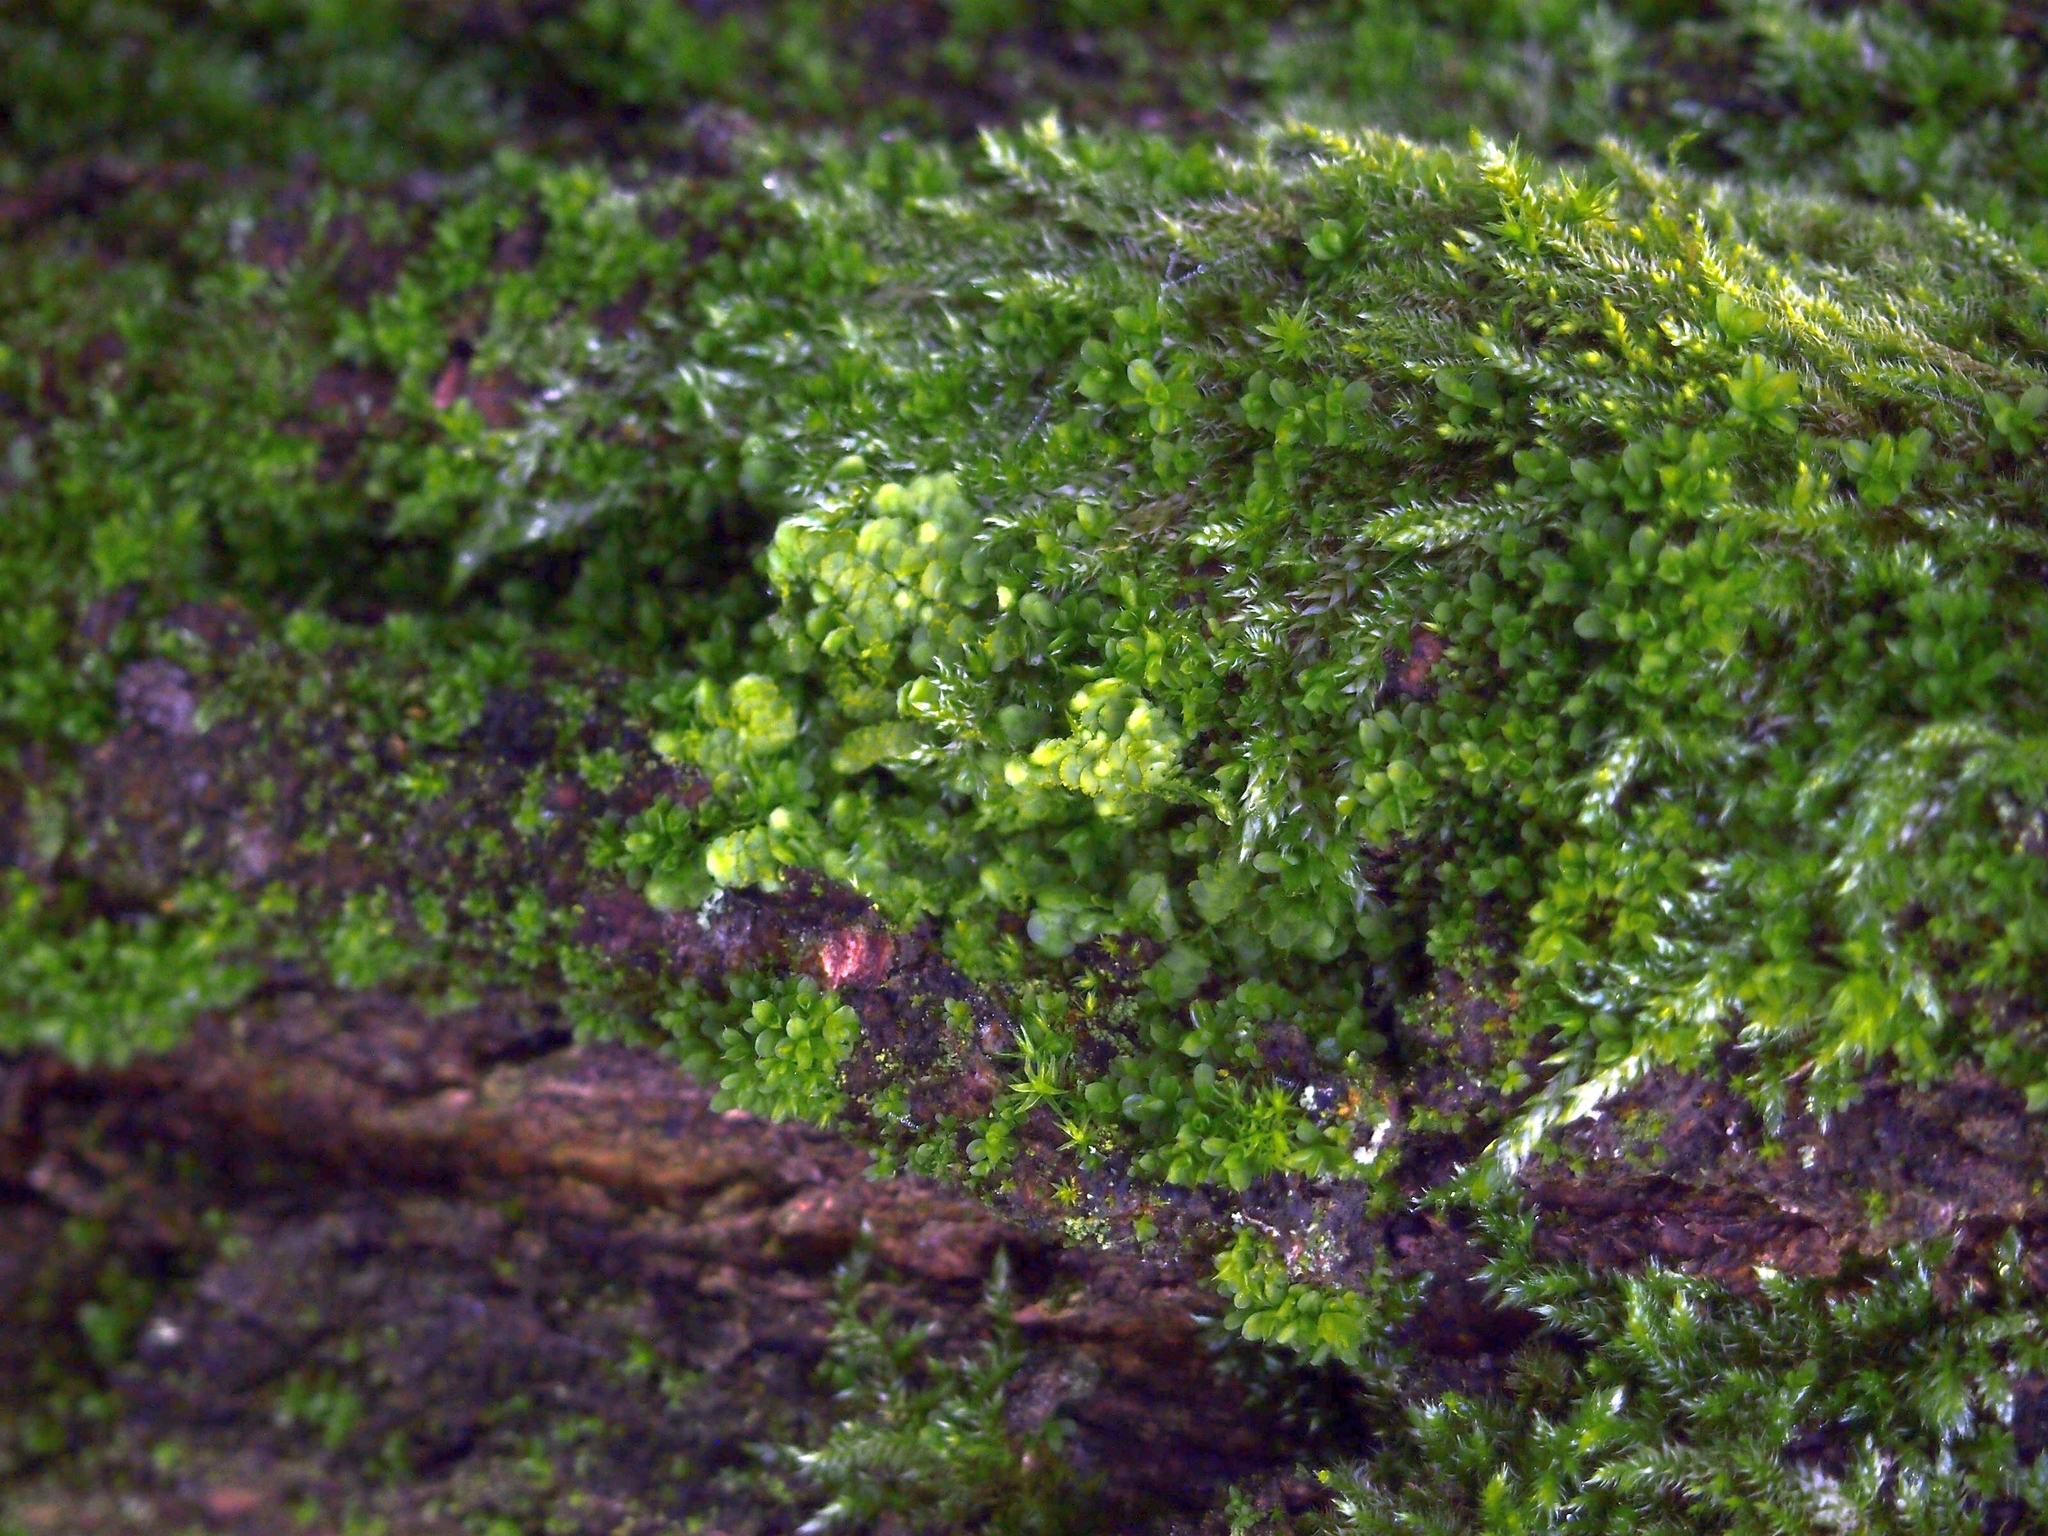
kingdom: Plantae
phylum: Bryophyta
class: Bryopsida
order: Hypnales
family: Hypnaceae
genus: Hypnum
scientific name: Hypnum cupressiforme
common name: Cypress-leaved plait-moss
